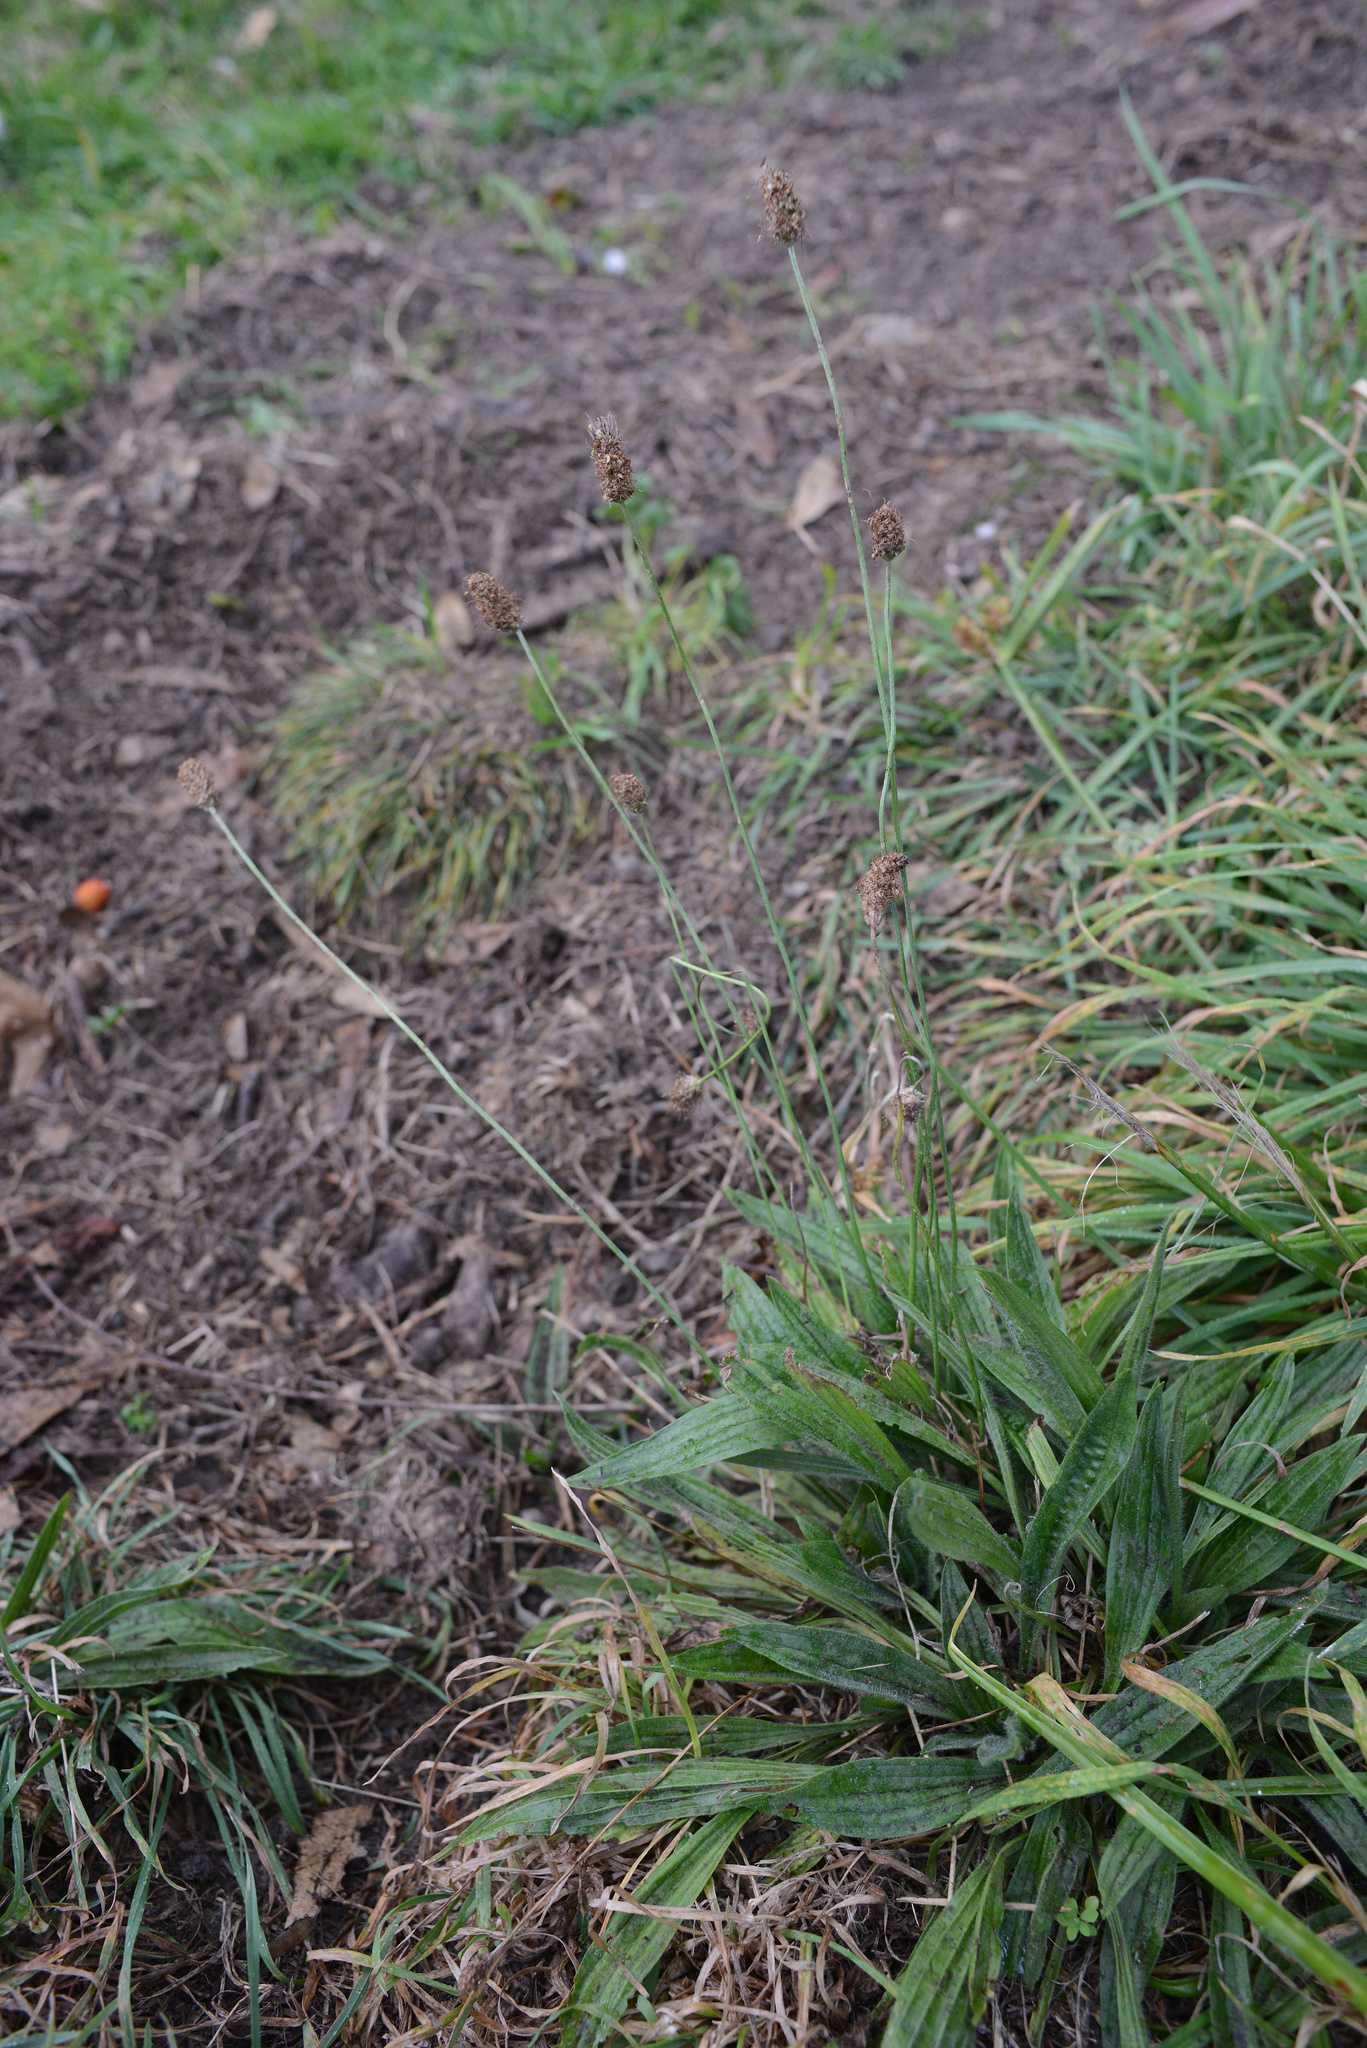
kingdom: Plantae
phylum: Tracheophyta
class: Magnoliopsida
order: Lamiales
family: Plantaginaceae
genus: Plantago
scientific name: Plantago lanceolata
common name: Ribwort plantain
